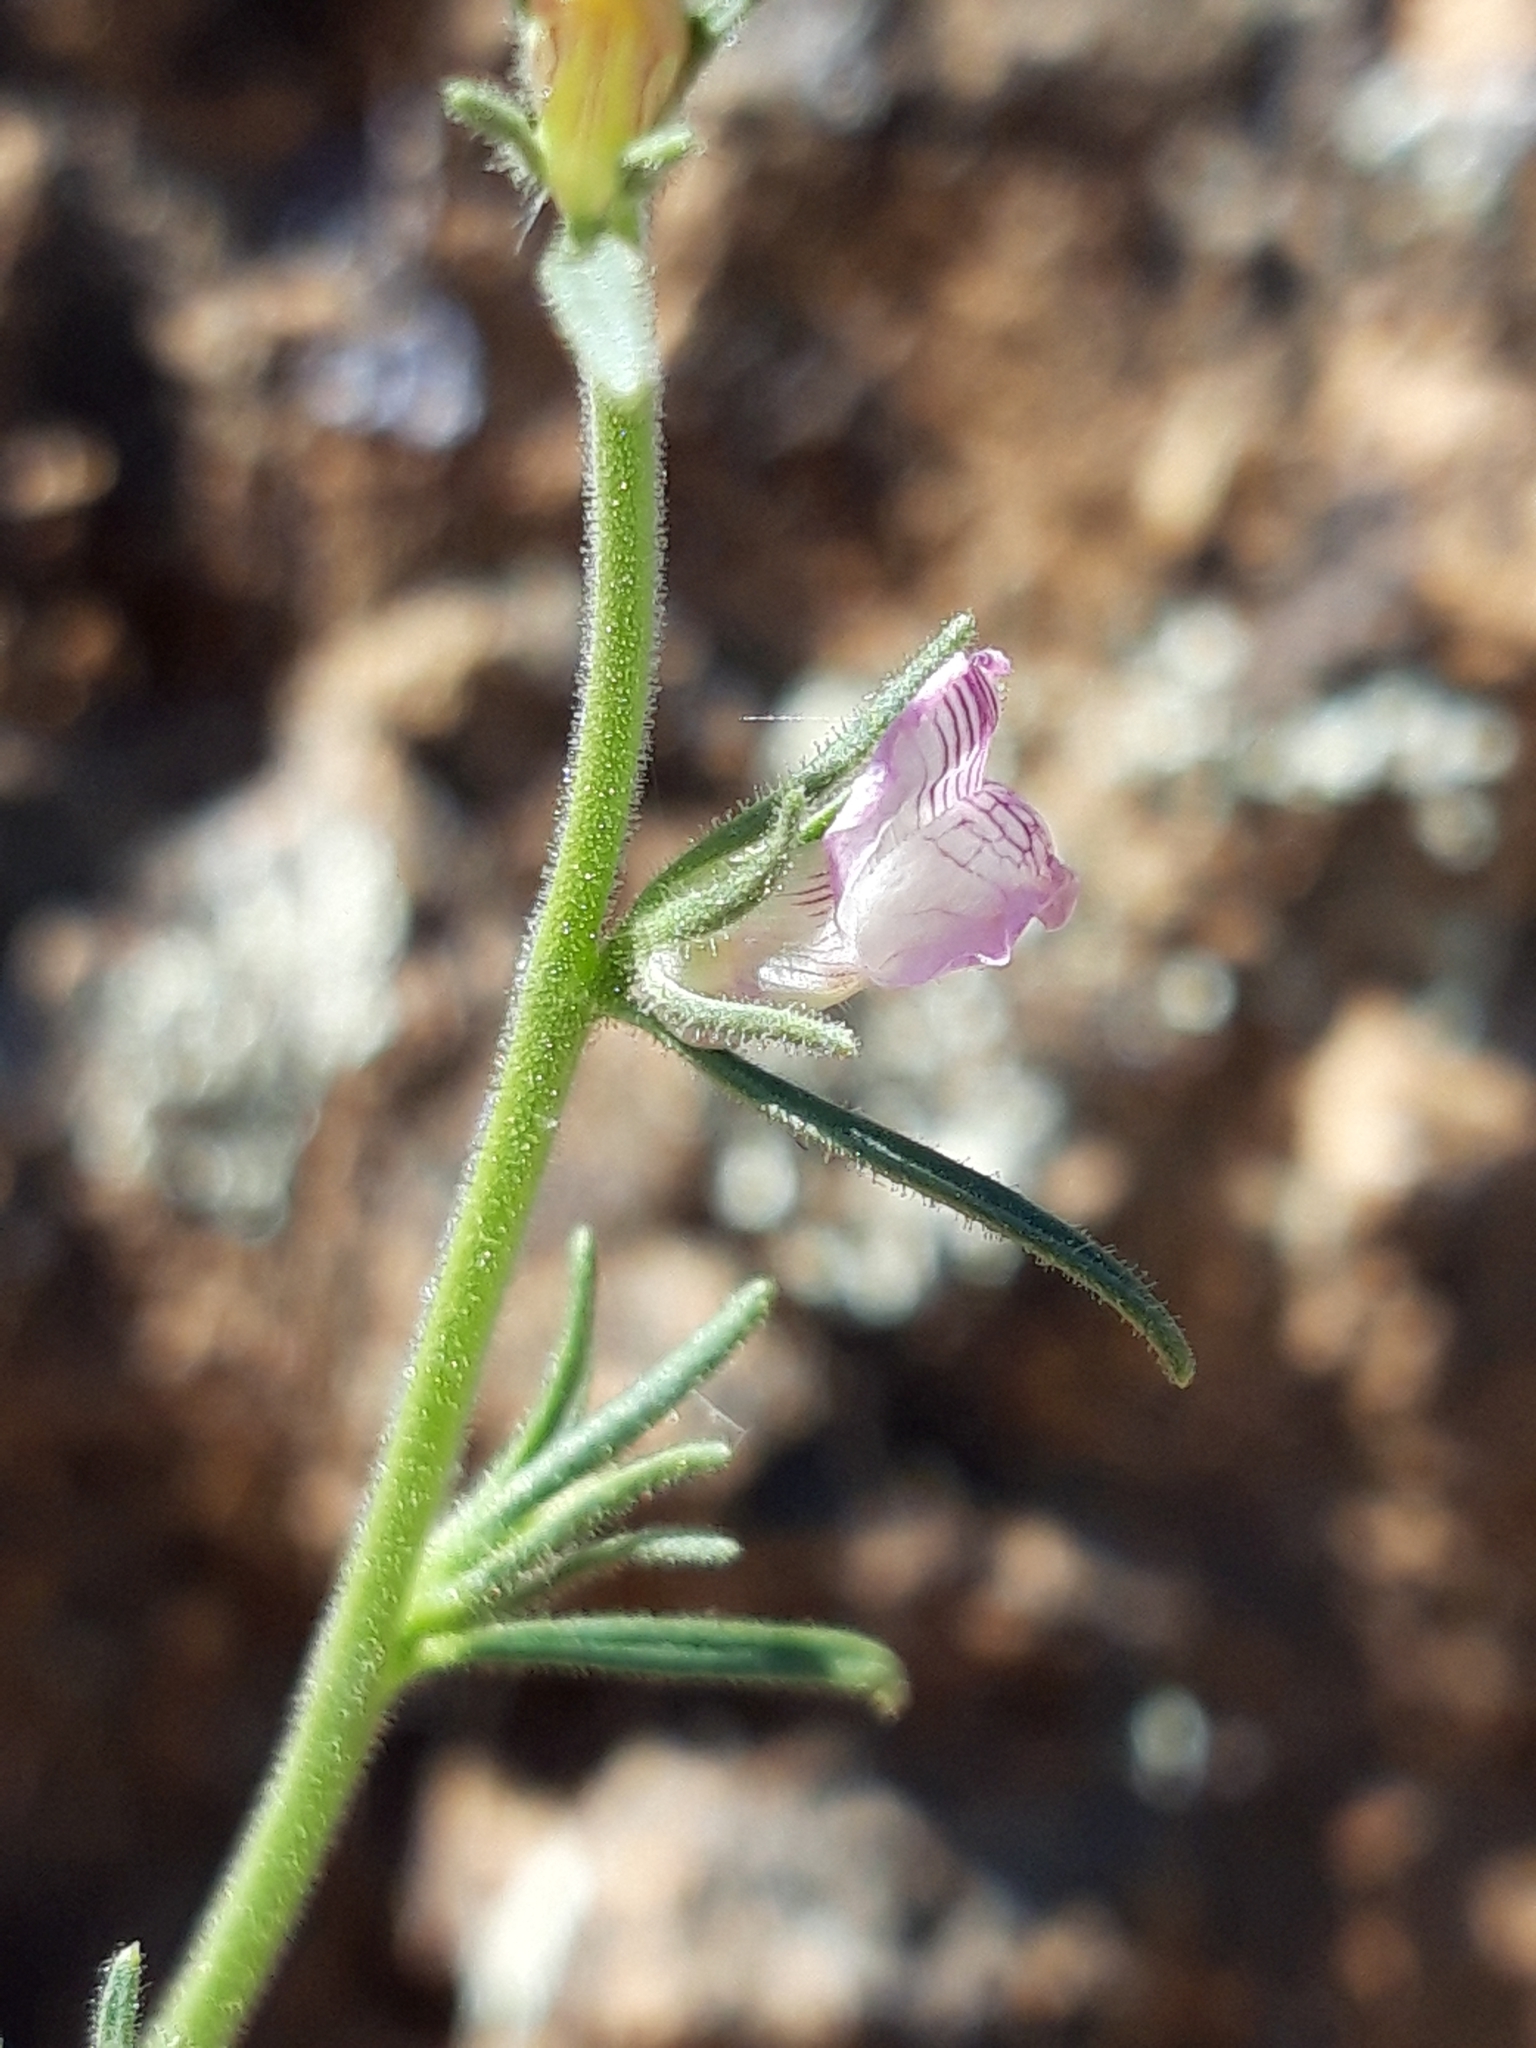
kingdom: Plantae
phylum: Tracheophyta
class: Magnoliopsida
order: Lamiales
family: Plantaginaceae
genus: Misopates
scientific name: Misopates orontium
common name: Weasel's-snout
